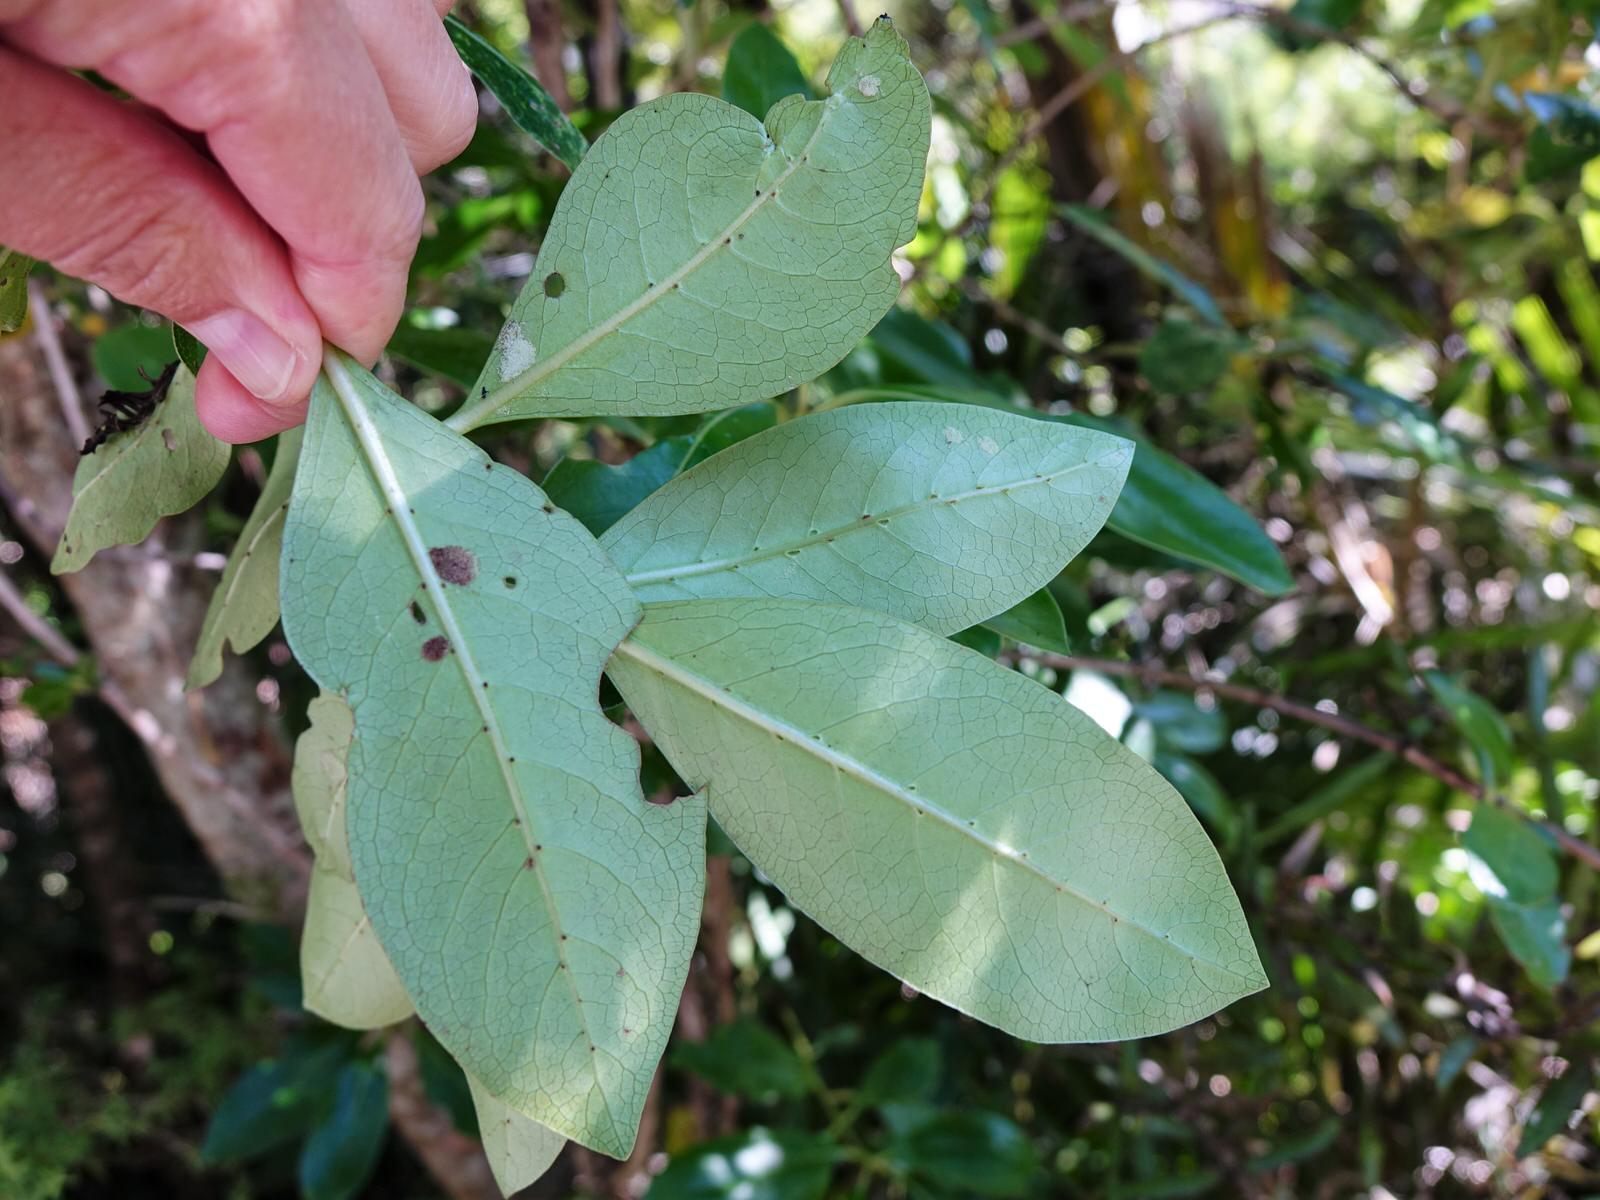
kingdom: Plantae
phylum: Tracheophyta
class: Magnoliopsida
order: Gentianales
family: Rubiaceae
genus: Coprosma
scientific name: Coprosma lucida
